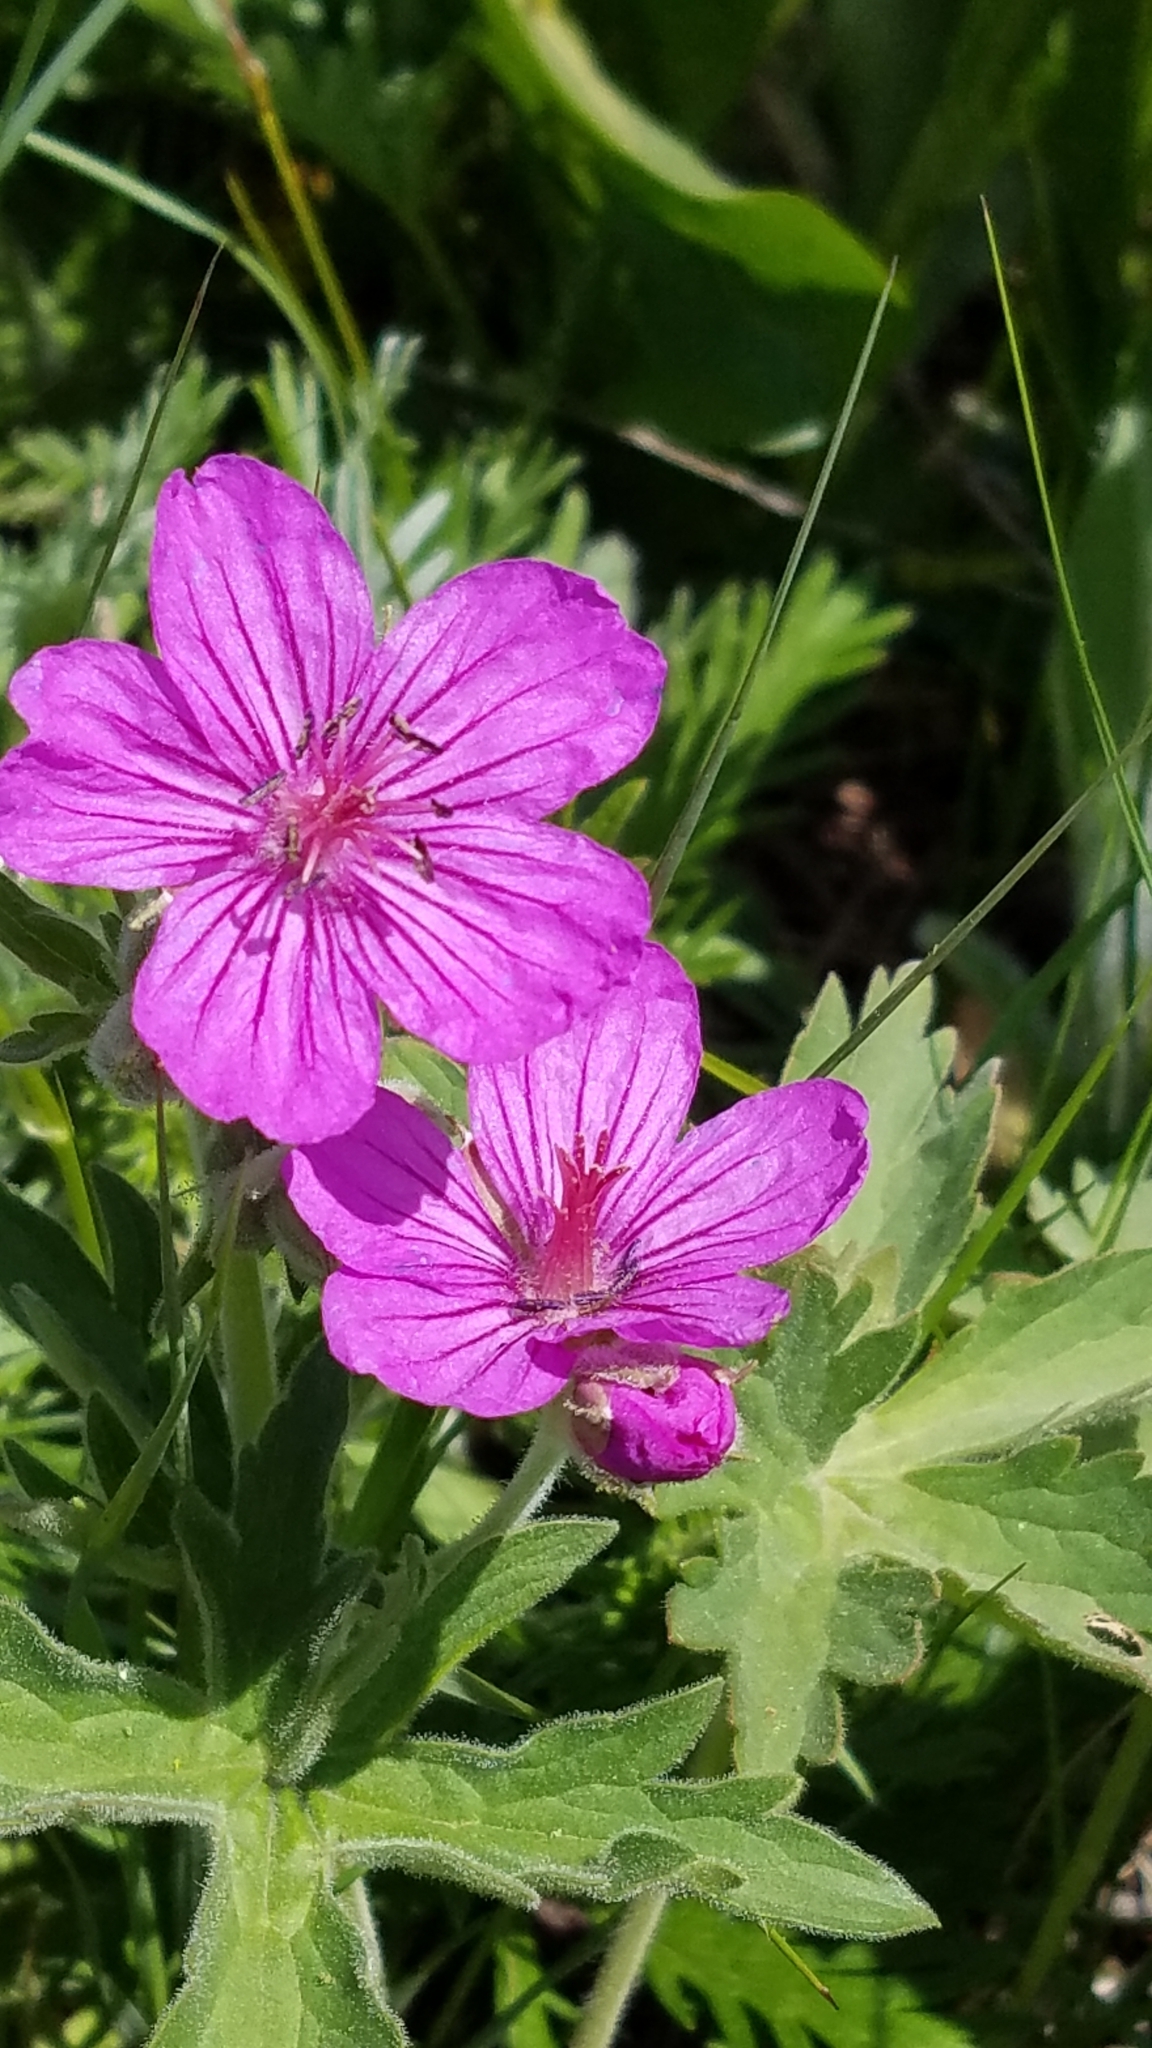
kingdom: Plantae
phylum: Tracheophyta
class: Magnoliopsida
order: Geraniales
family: Geraniaceae
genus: Geranium
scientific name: Geranium viscosissimum
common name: Purple geranium
